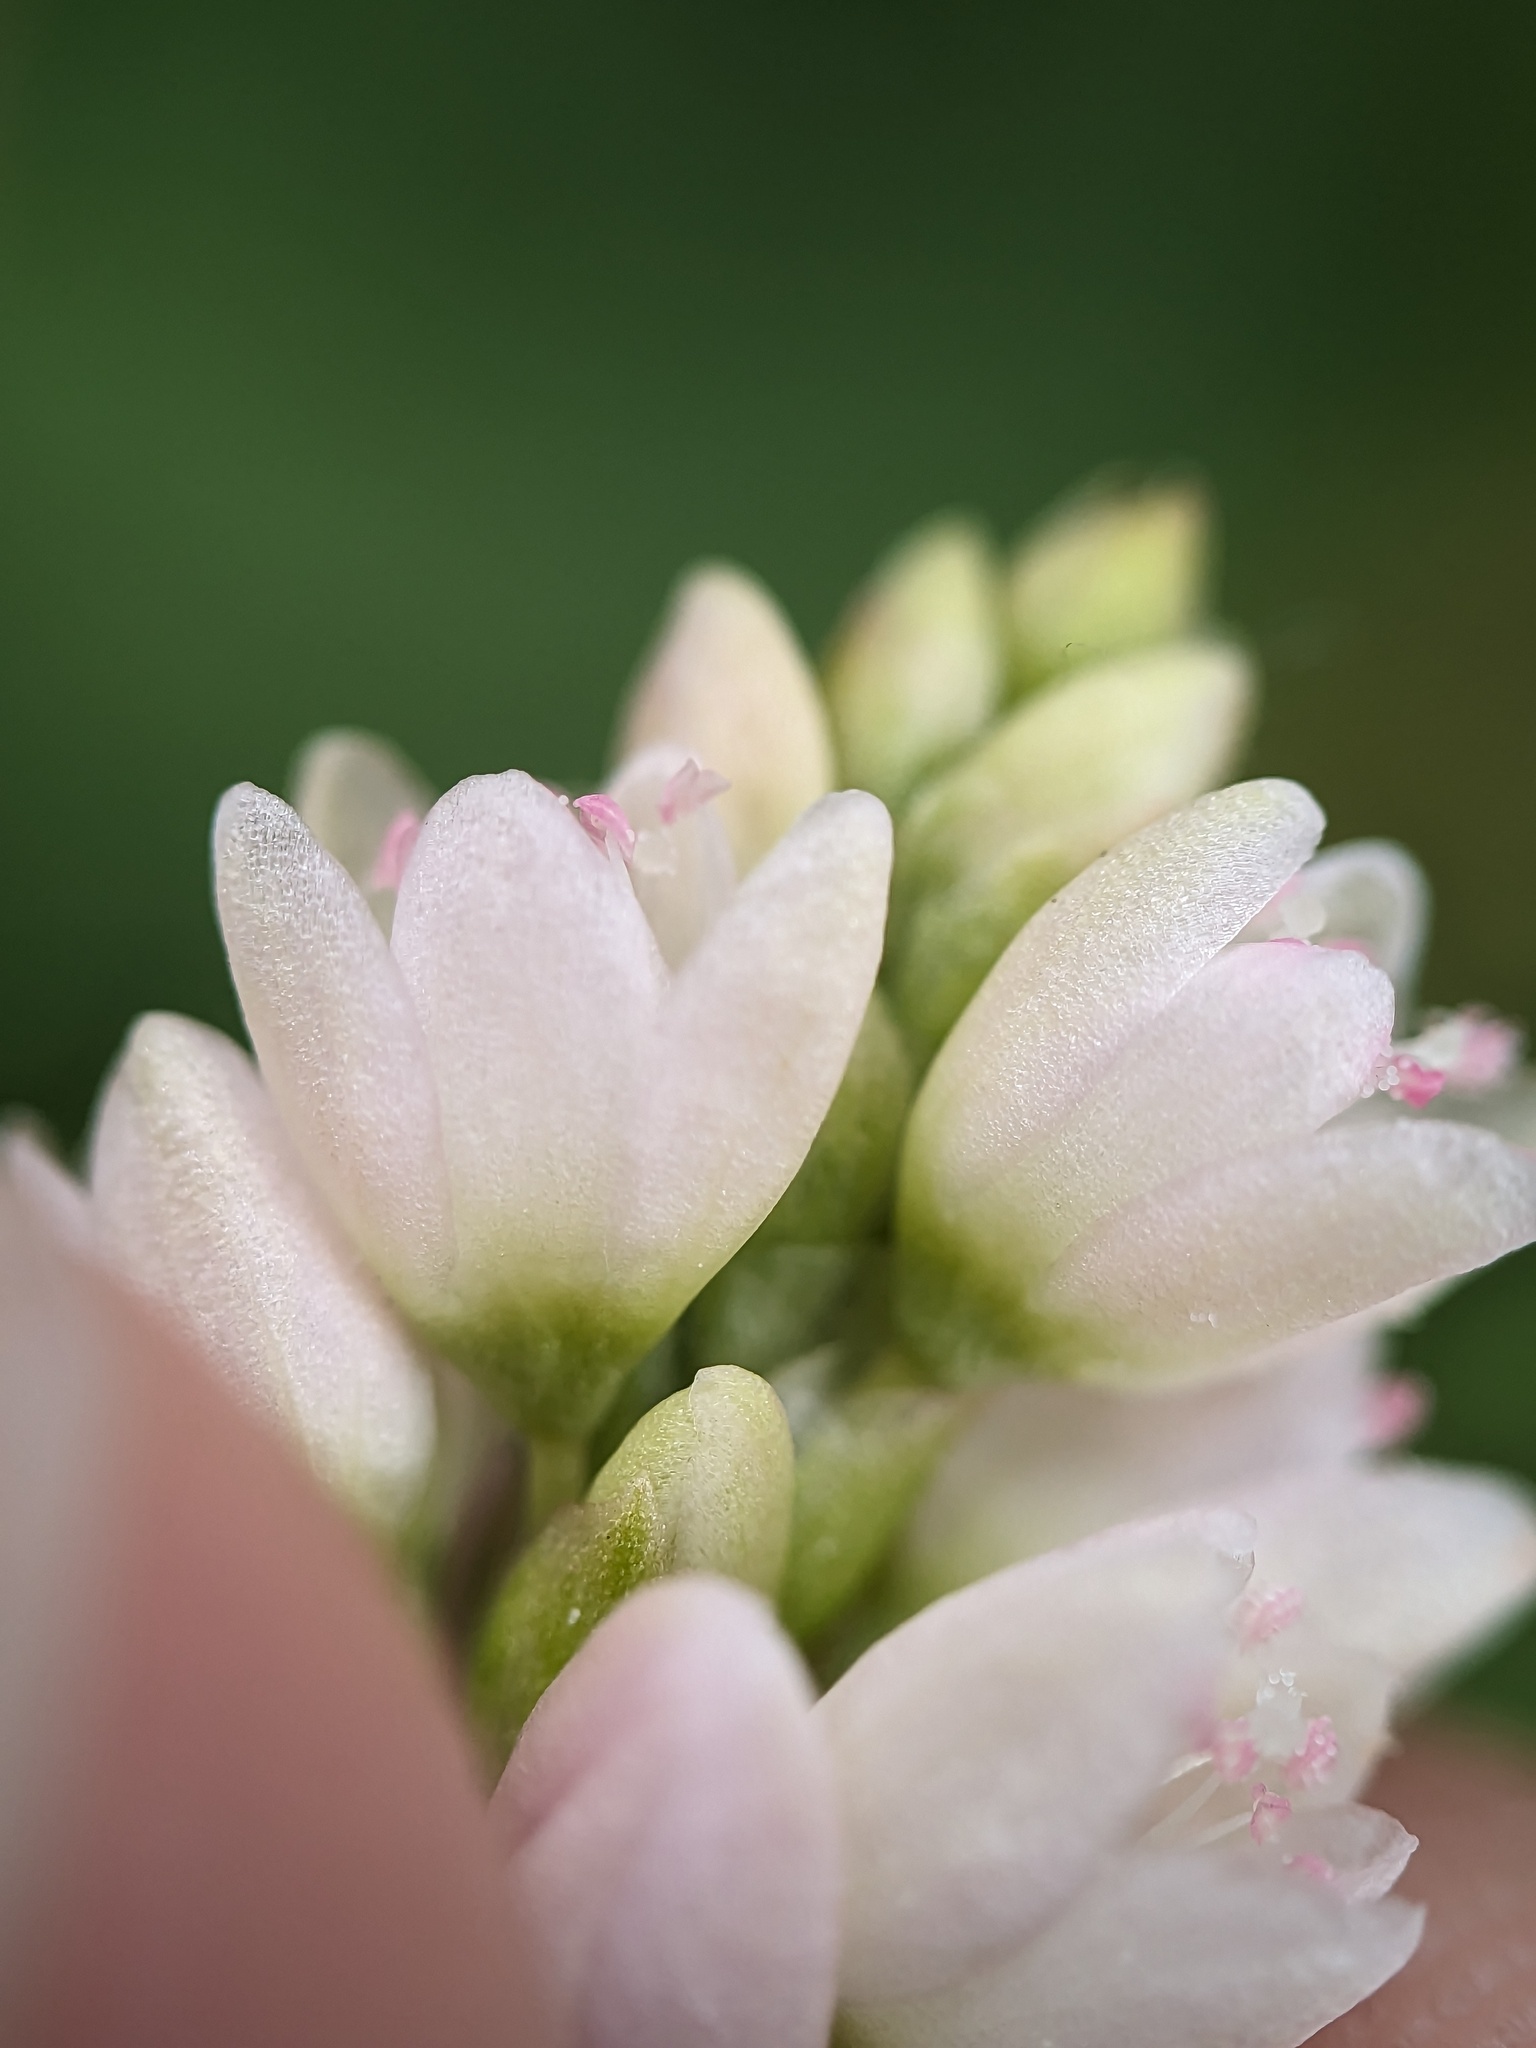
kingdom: Plantae
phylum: Tracheophyta
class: Magnoliopsida
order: Caryophyllales
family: Polygonaceae
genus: Persicaria
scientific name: Persicaria pensylvanica
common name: Pinkweed
